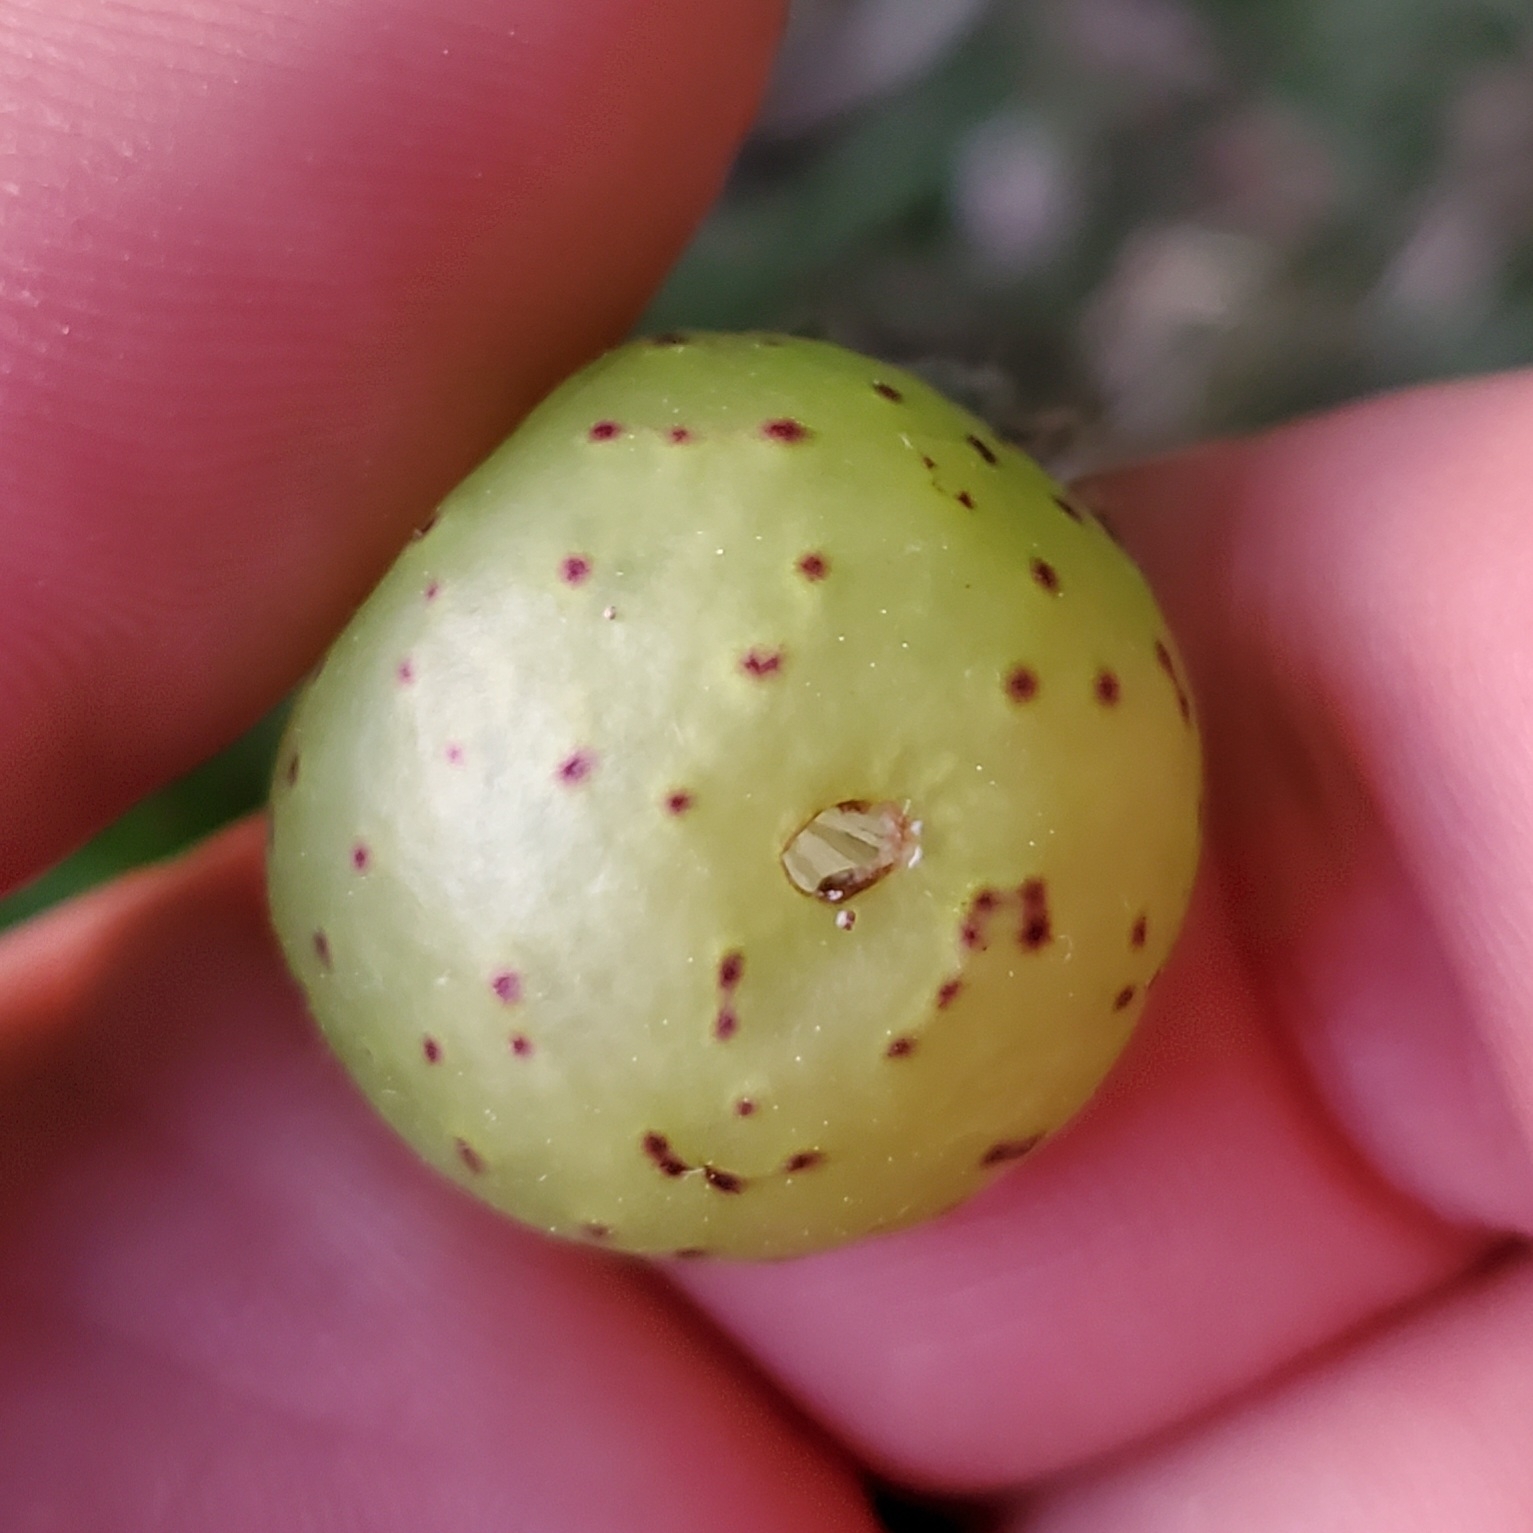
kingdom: Animalia
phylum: Arthropoda
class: Insecta
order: Hymenoptera
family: Cynipidae
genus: Amphibolips
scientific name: Amphibolips
